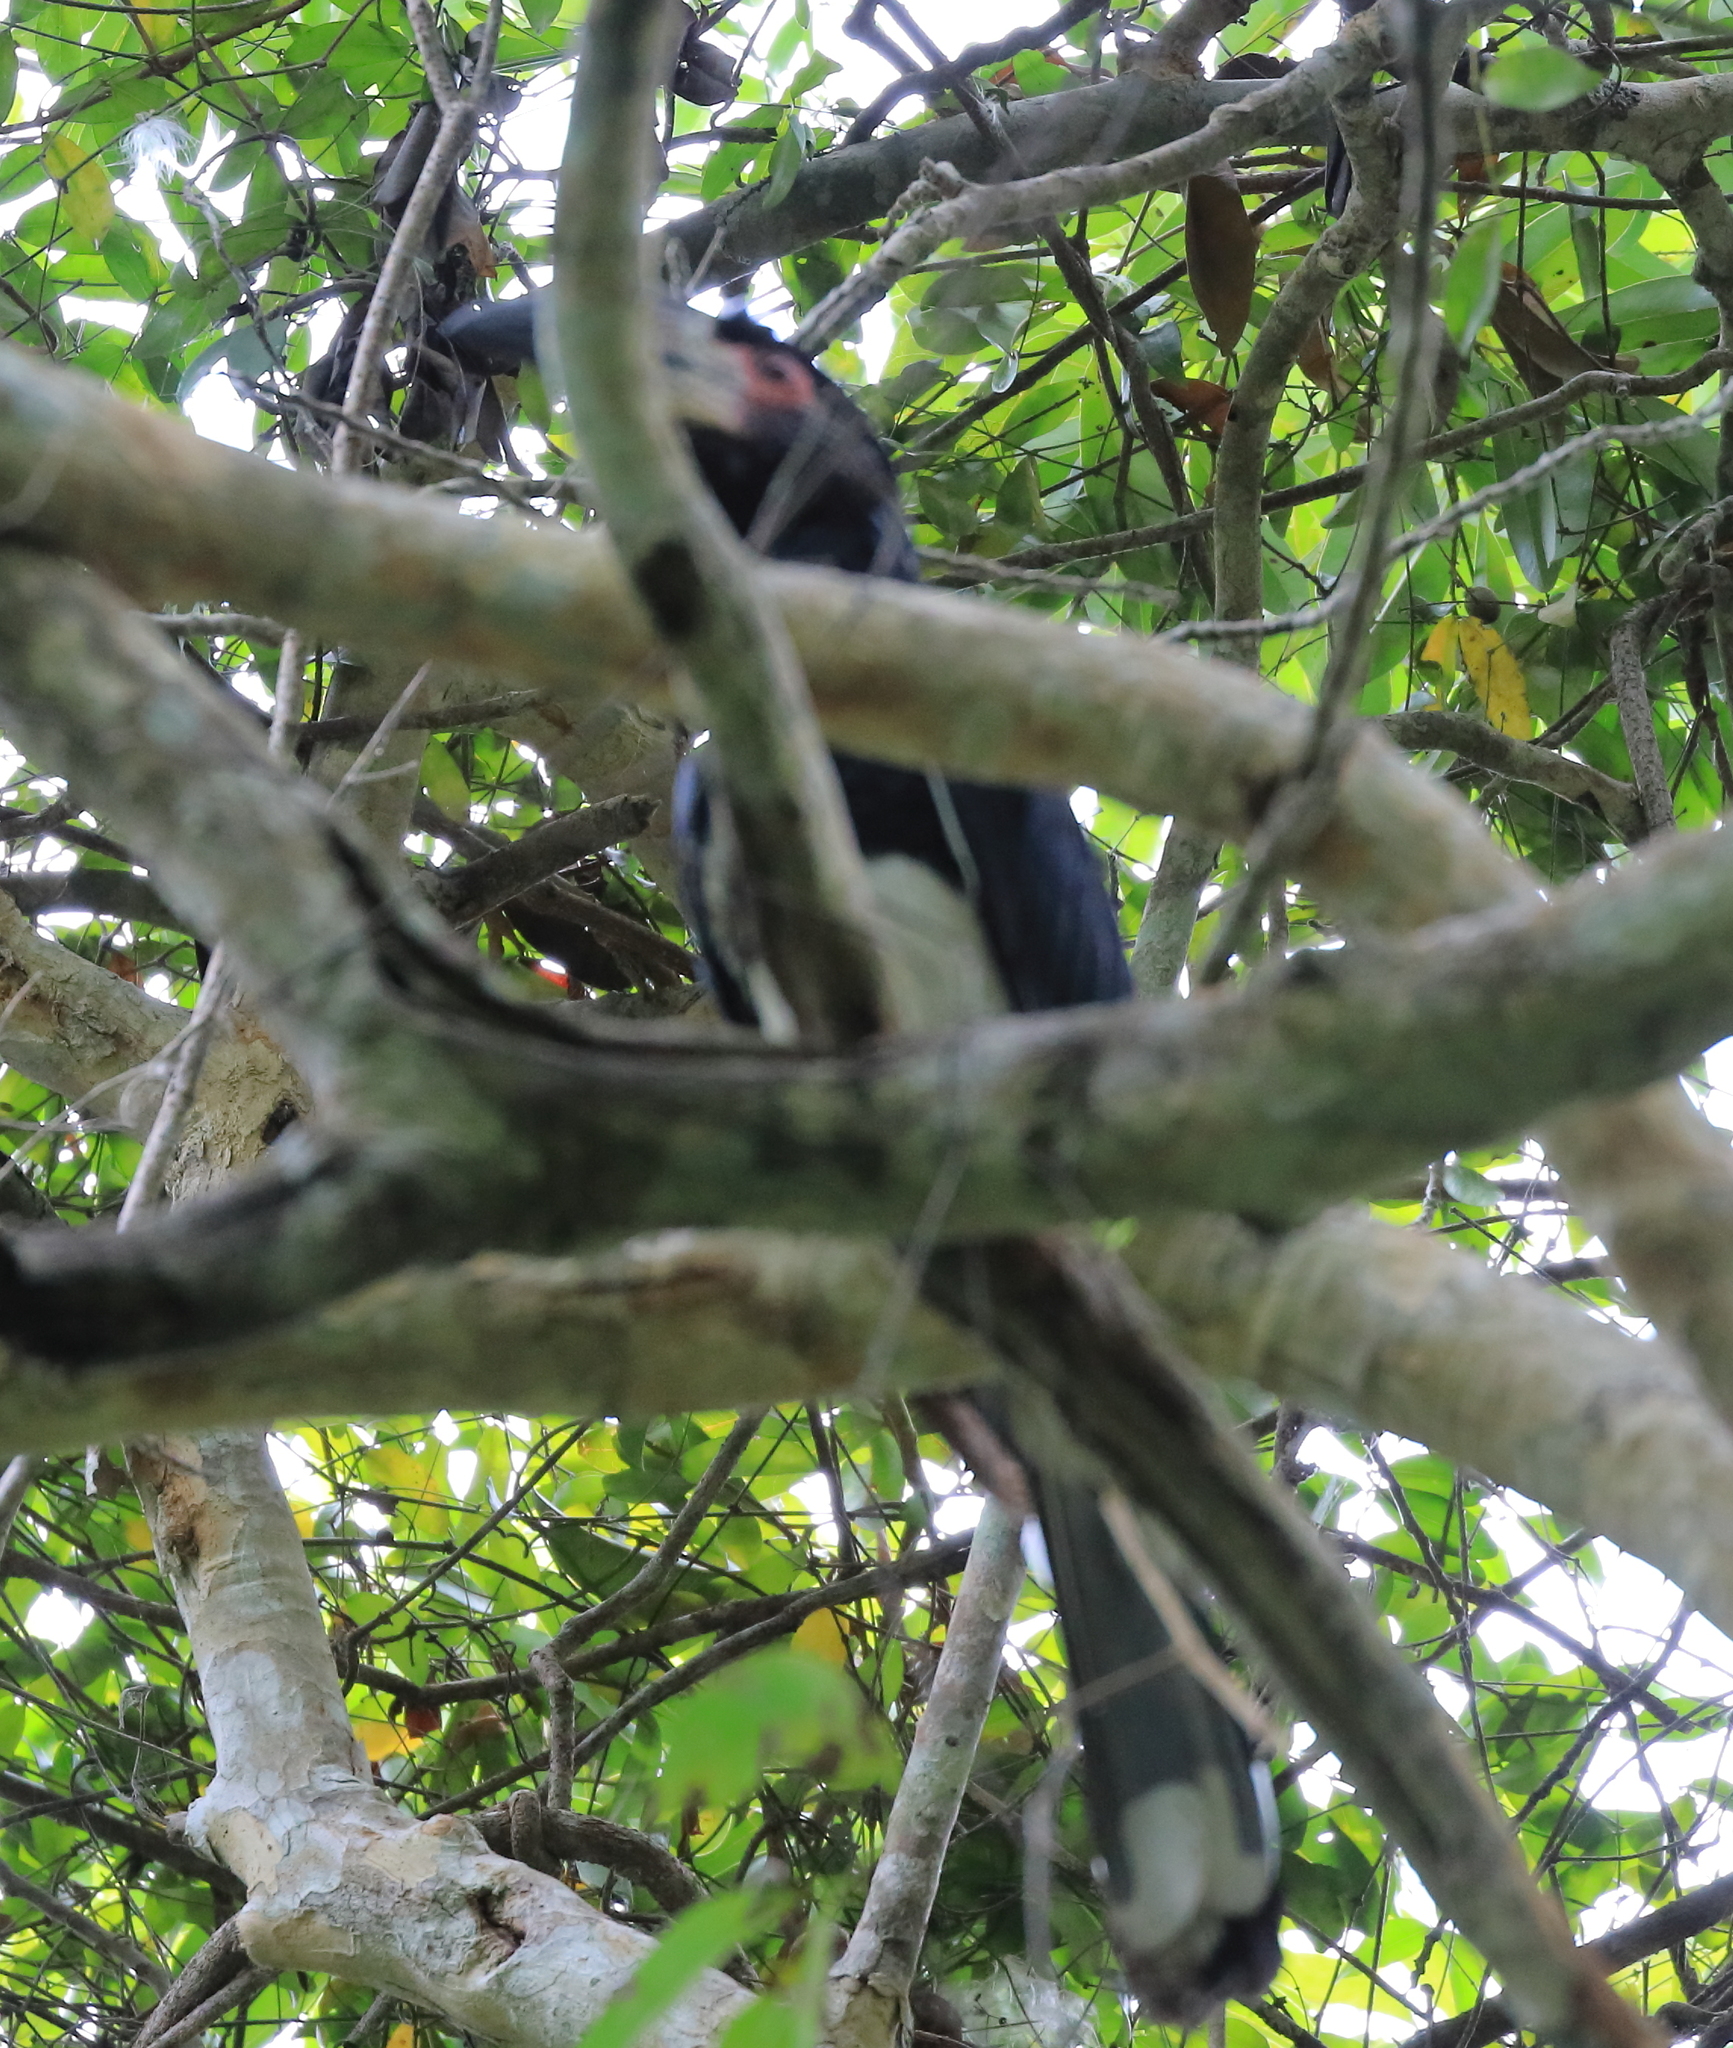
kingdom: Animalia
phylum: Chordata
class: Aves
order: Bucerotiformes
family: Bucerotidae
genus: Bycanistes
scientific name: Bycanistes bucinator
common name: Trumpeter hornbill
